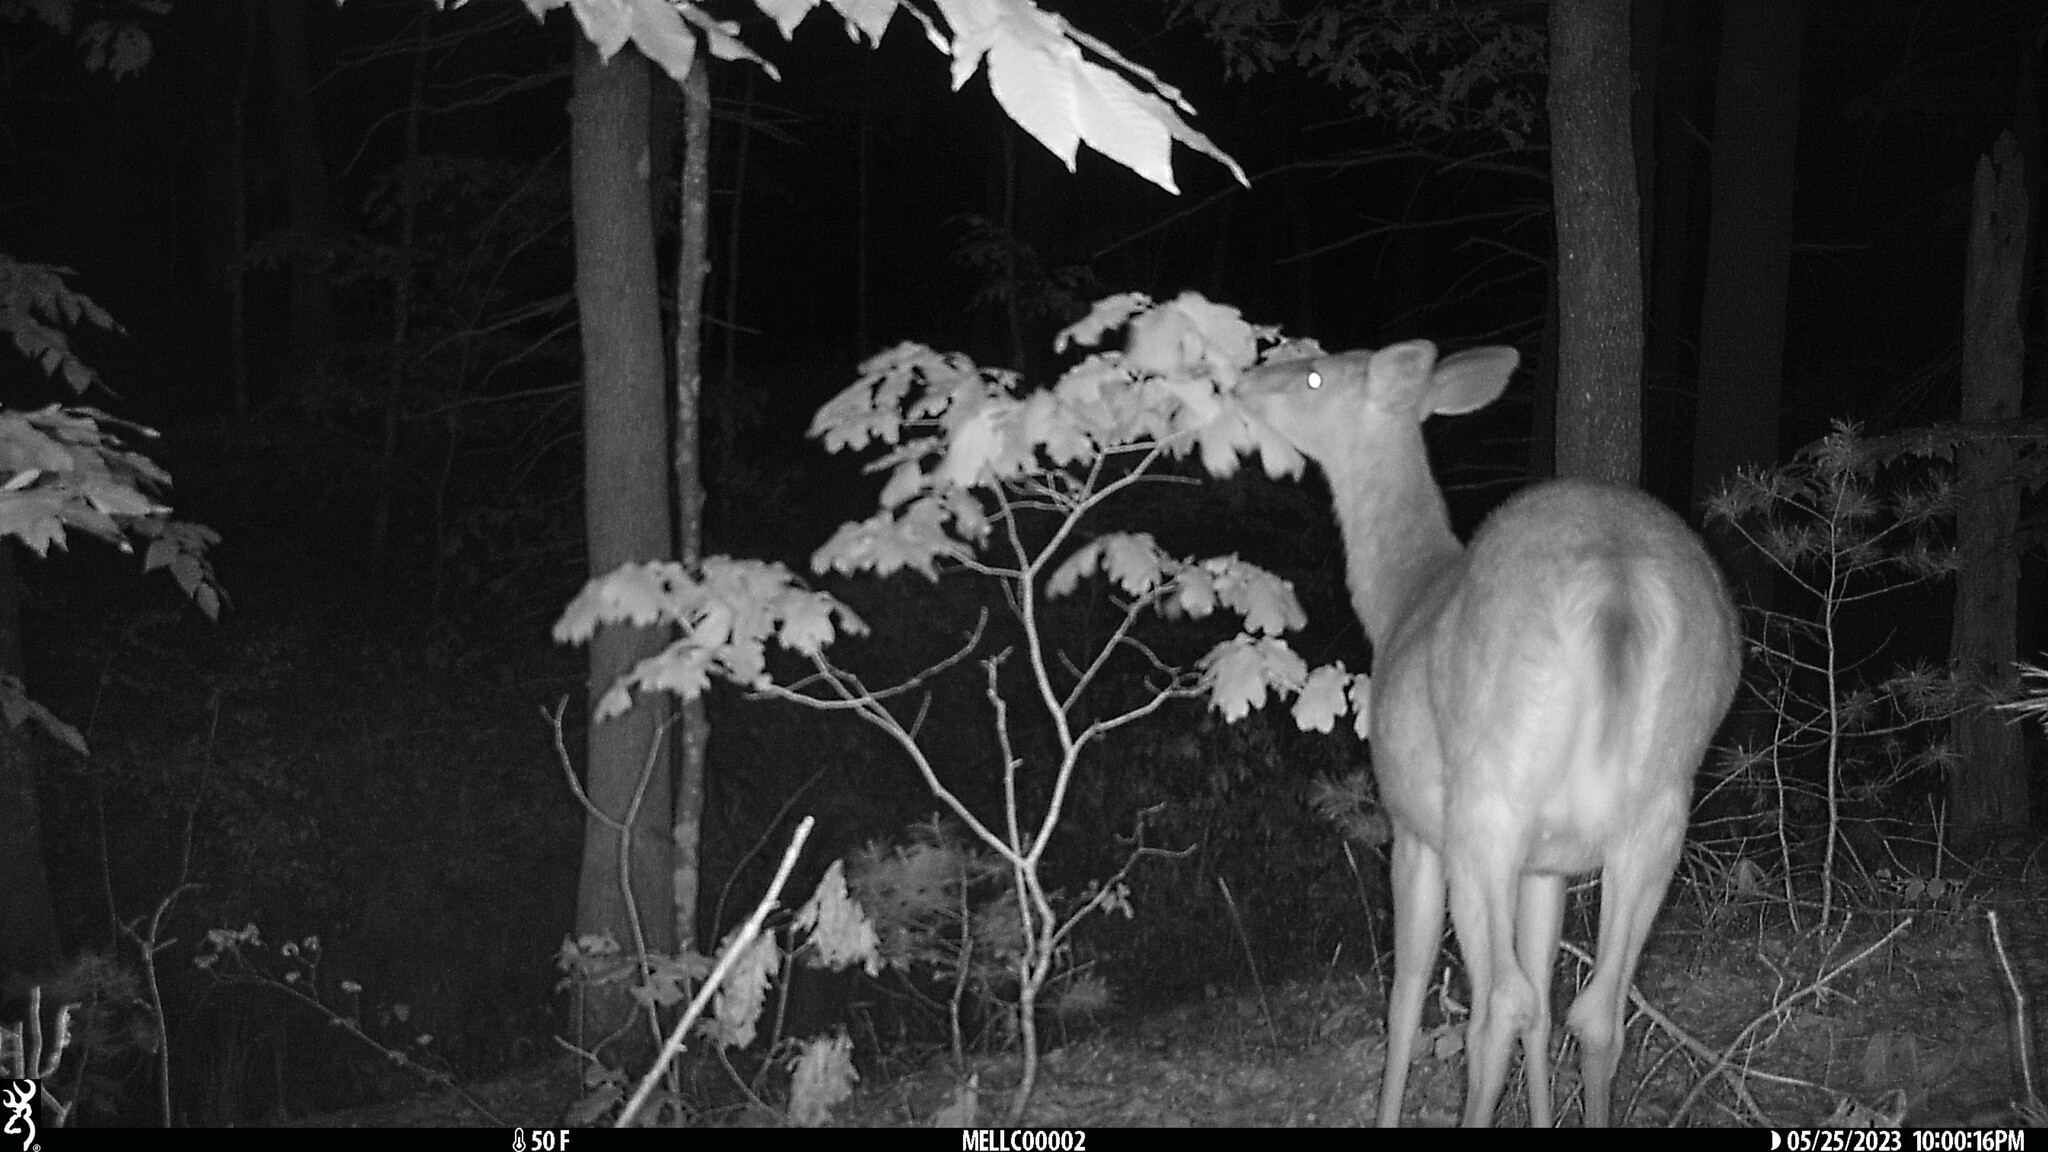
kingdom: Animalia
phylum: Chordata
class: Mammalia
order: Artiodactyla
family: Cervidae
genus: Odocoileus
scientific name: Odocoileus virginianus
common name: White-tailed deer
